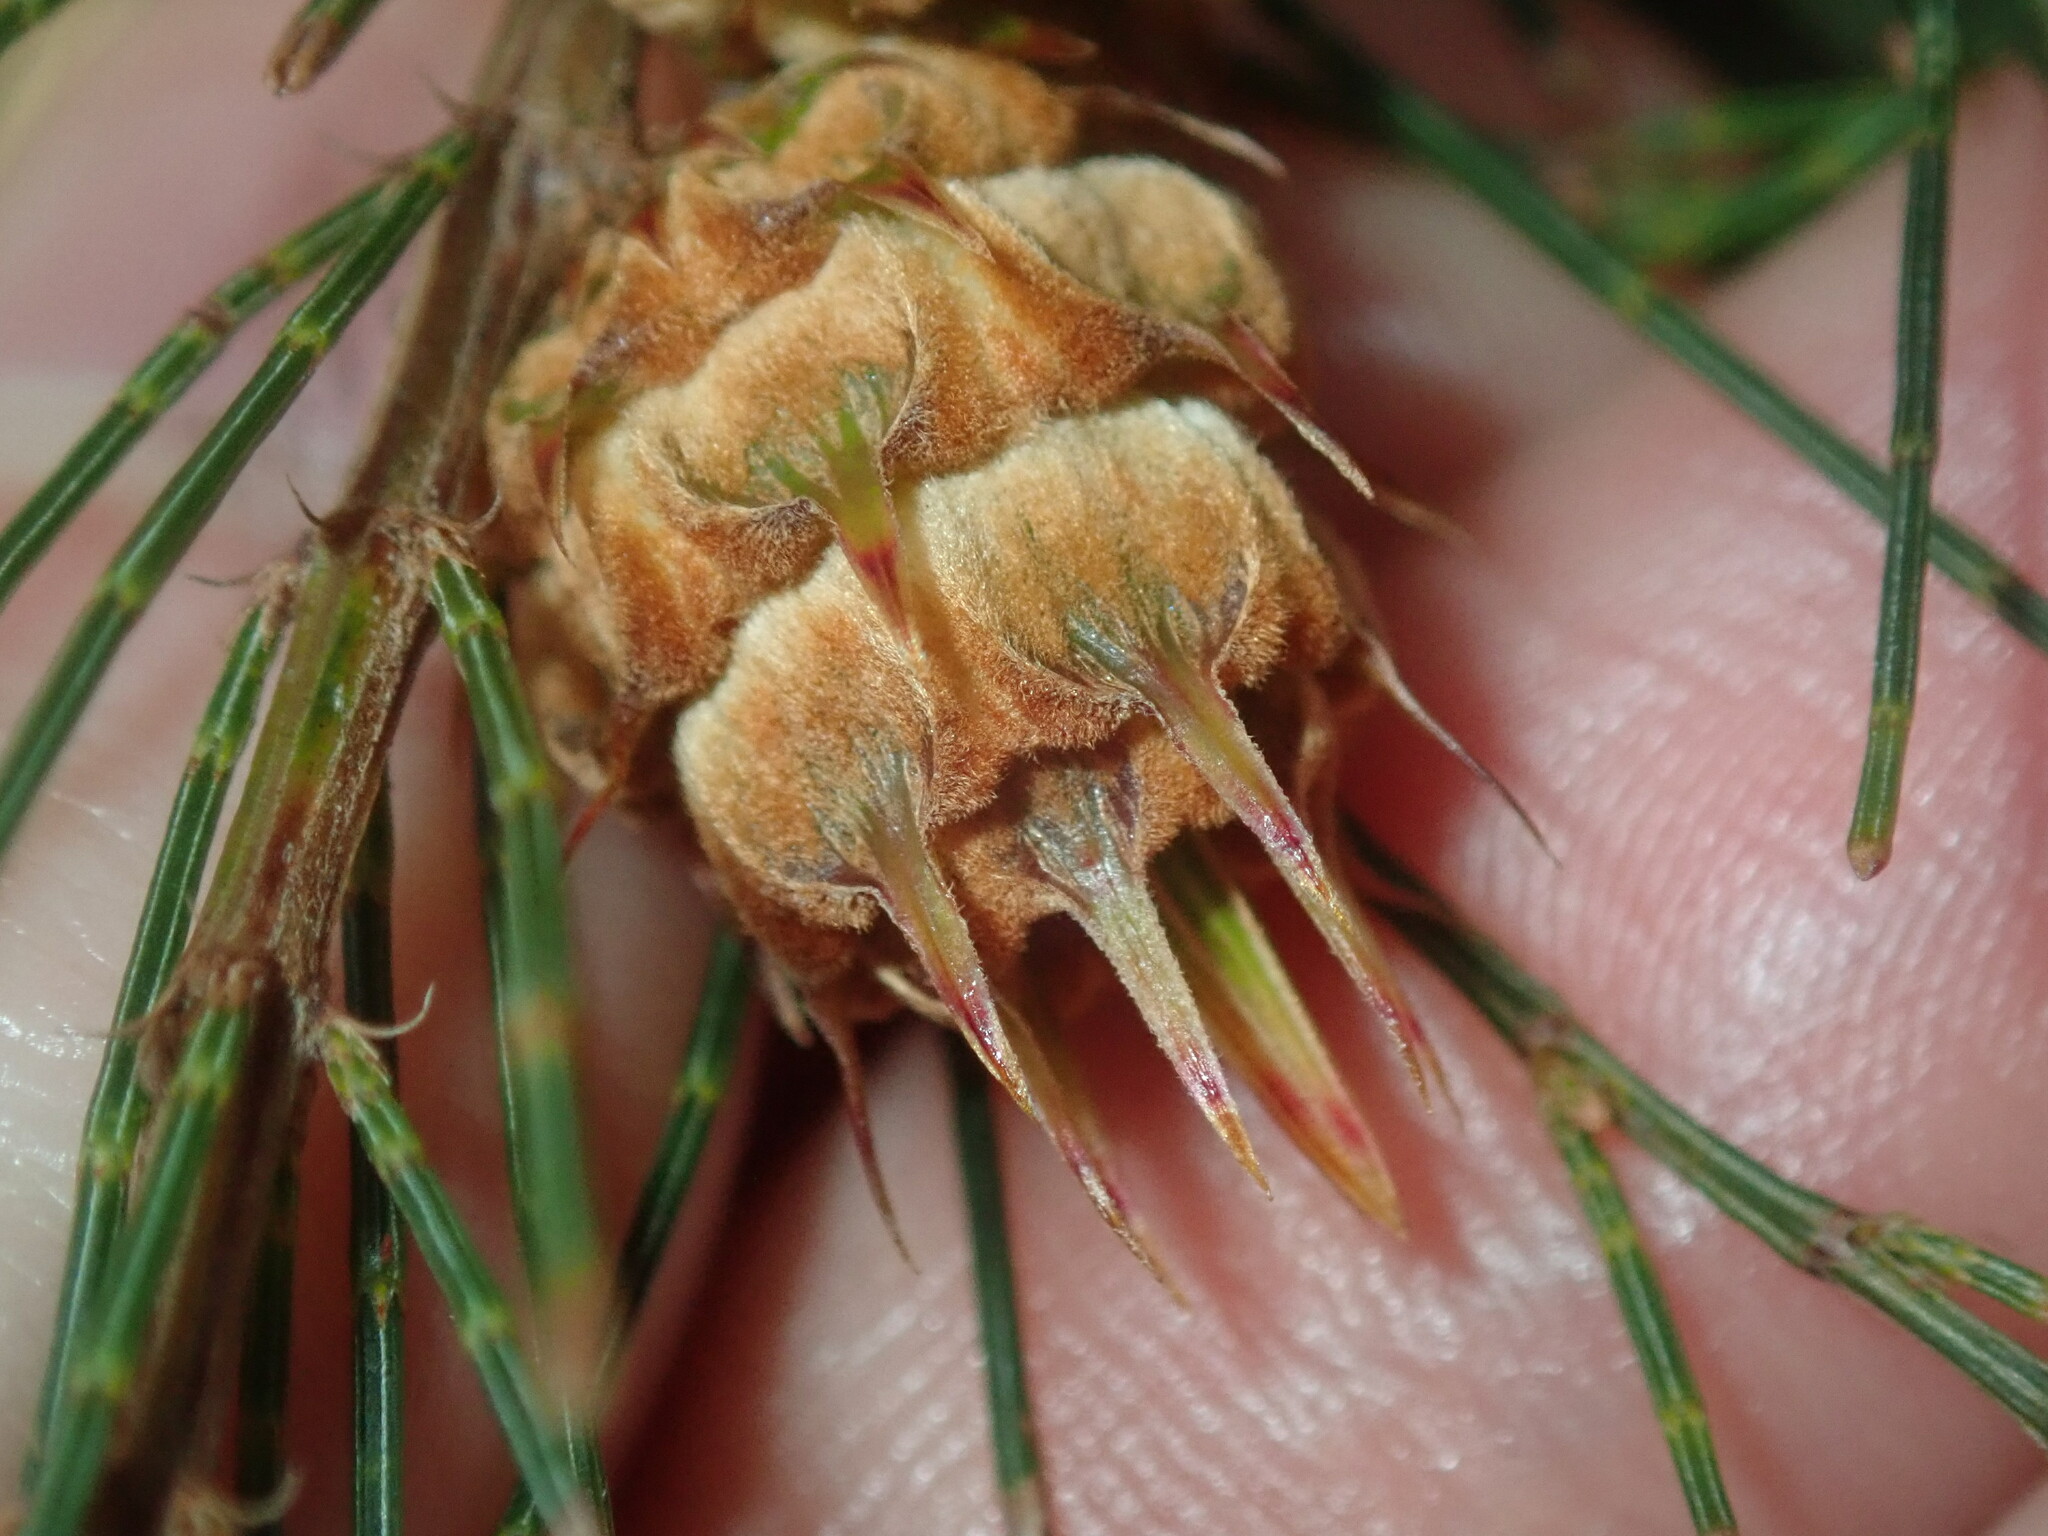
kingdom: Animalia
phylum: Arthropoda
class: Insecta
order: Hemiptera
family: Eriococcidae
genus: Cylindrococcus
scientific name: Cylindrococcus spiniferus
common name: Casuarina gall
